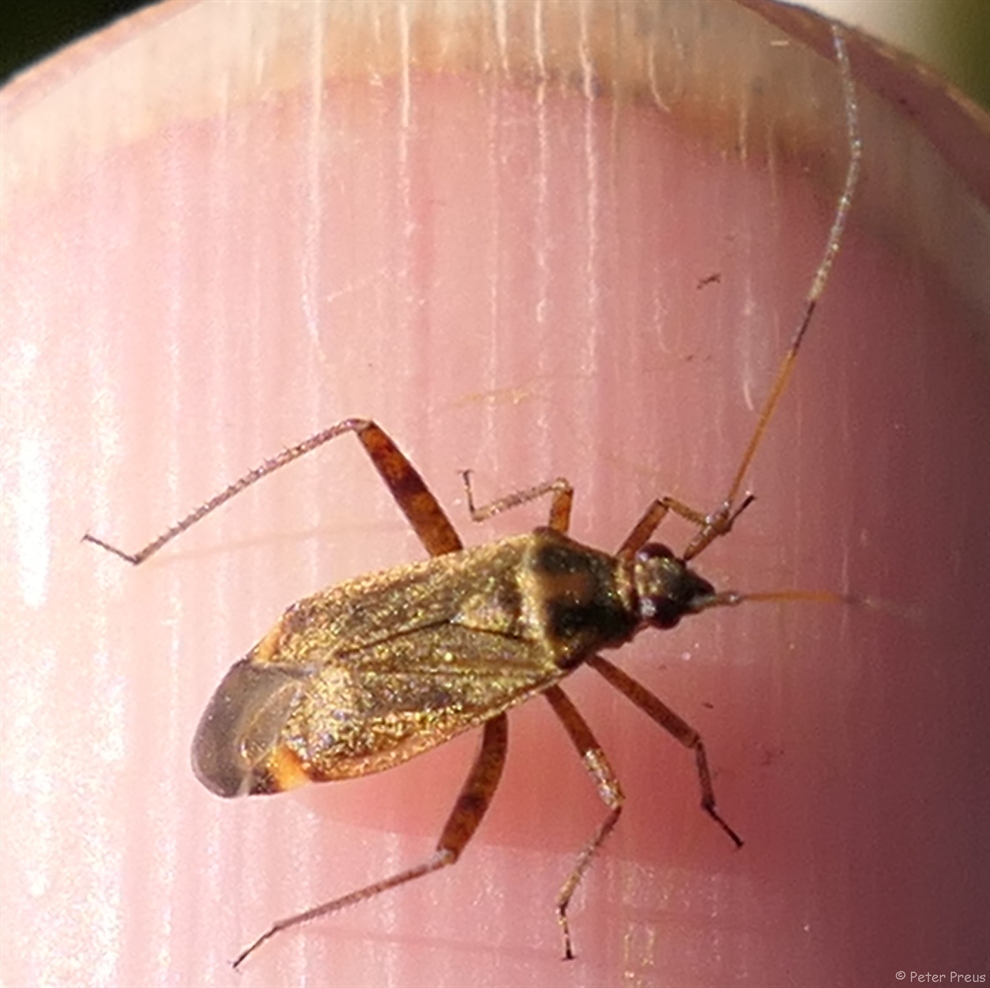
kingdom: Animalia
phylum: Arthropoda
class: Insecta
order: Hemiptera
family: Miridae
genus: Closterotomus
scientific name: Closterotomus fulvomaculatus
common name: Spotted plant bug
